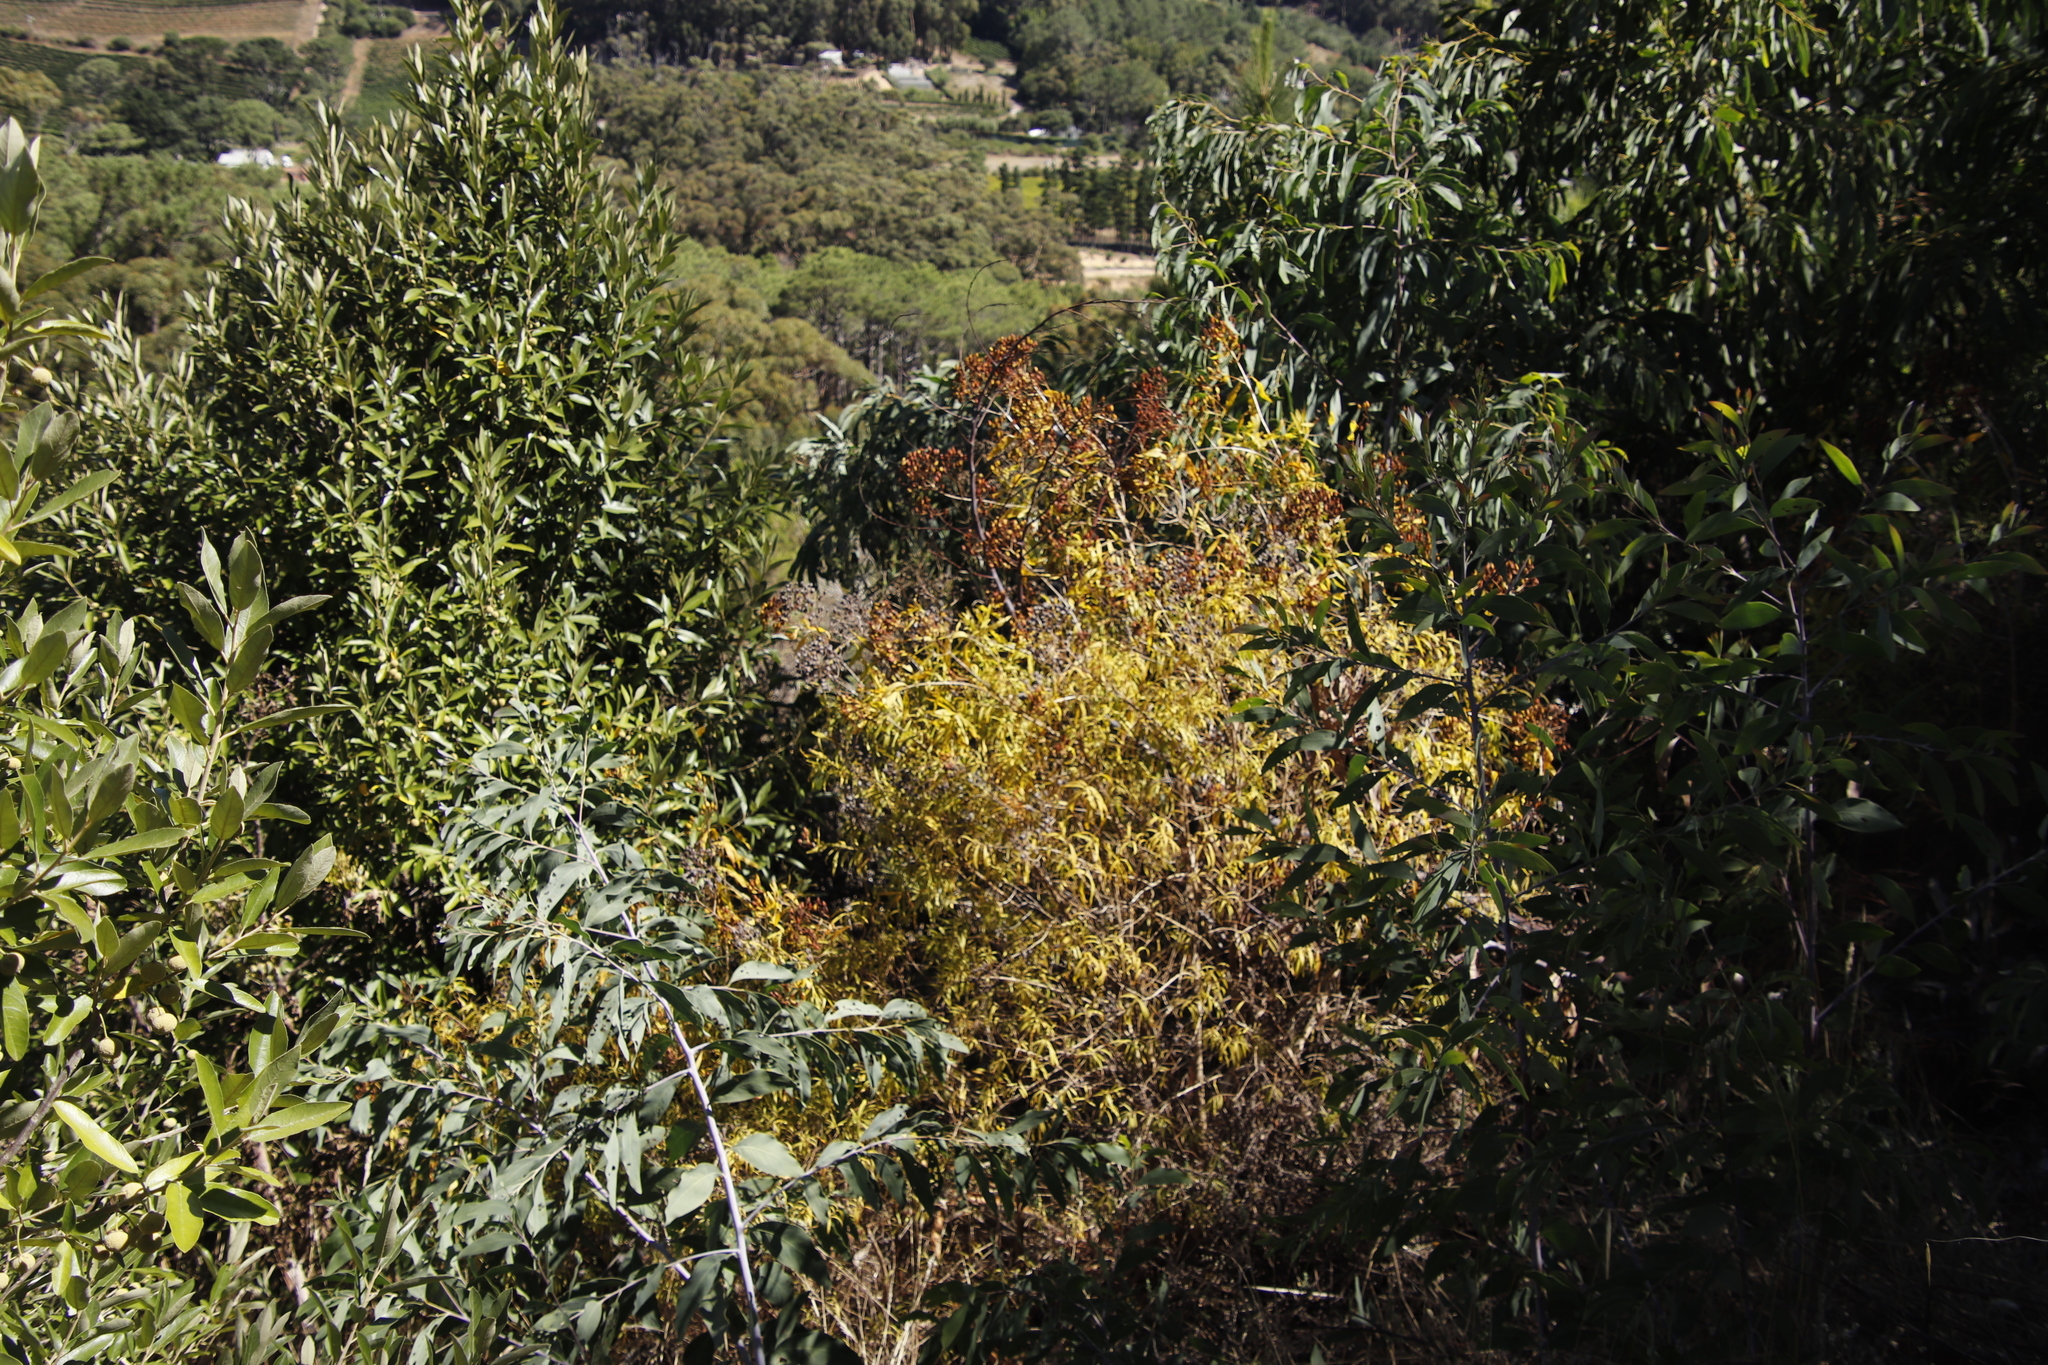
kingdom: Plantae
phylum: Tracheophyta
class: Magnoliopsida
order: Malpighiales
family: Hypericaceae
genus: Hypericum
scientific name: Hypericum canariense
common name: Canary island st. johnswort
